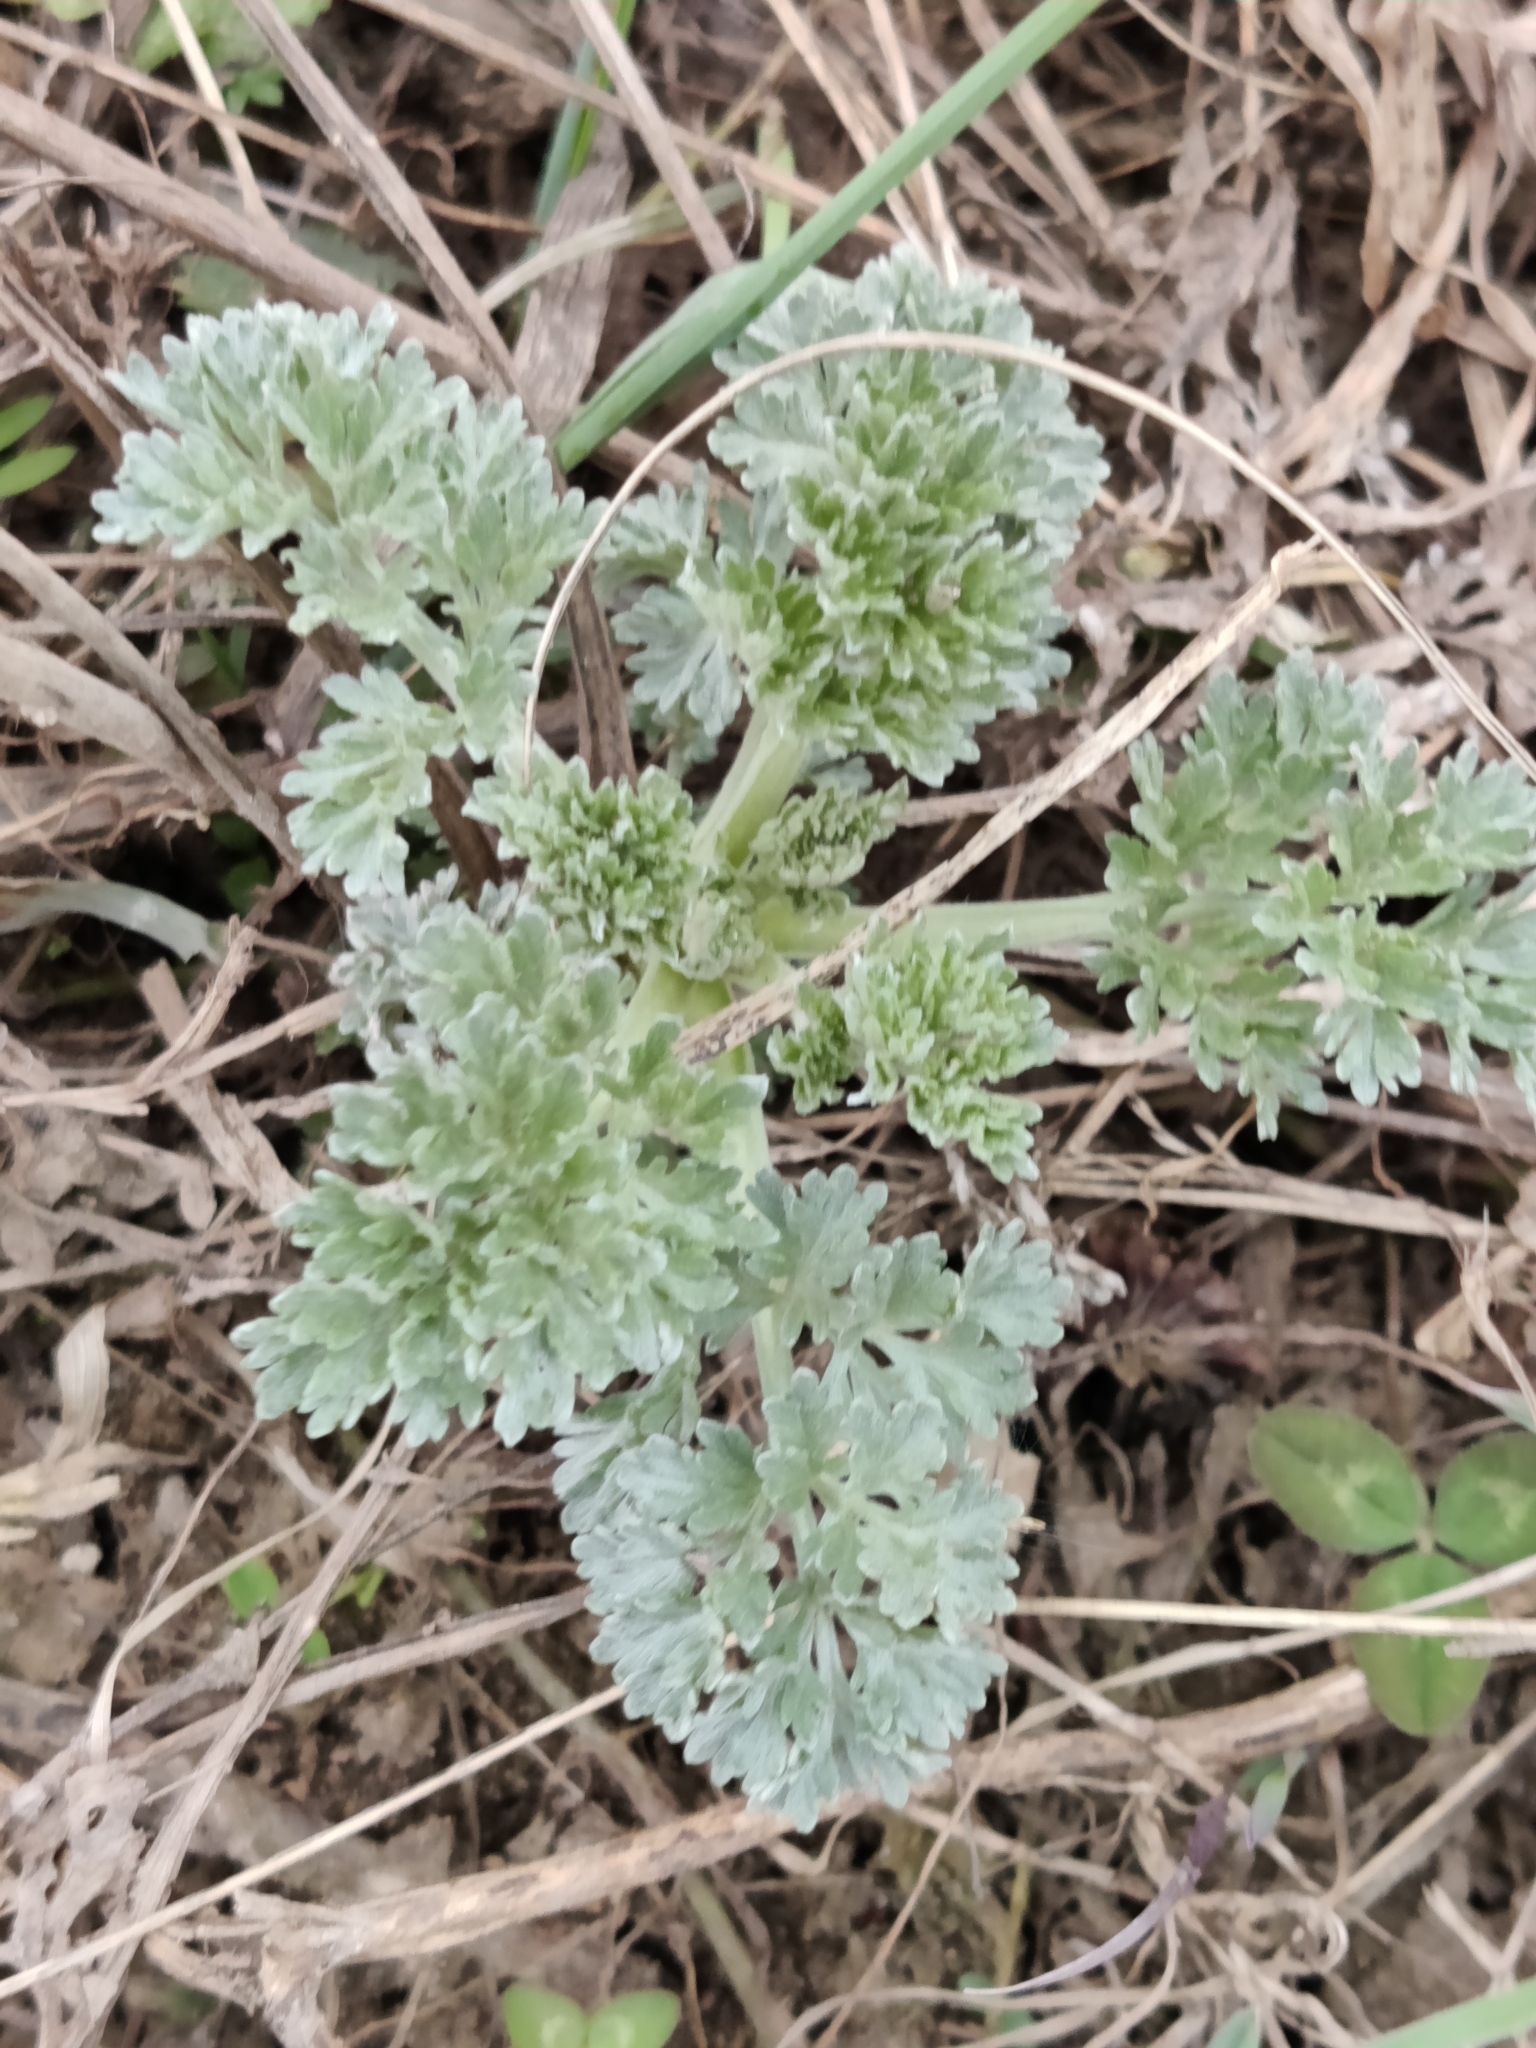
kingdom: Plantae
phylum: Tracheophyta
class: Magnoliopsida
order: Asterales
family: Asteraceae
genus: Artemisia
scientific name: Artemisia absinthium
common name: Wormwood
